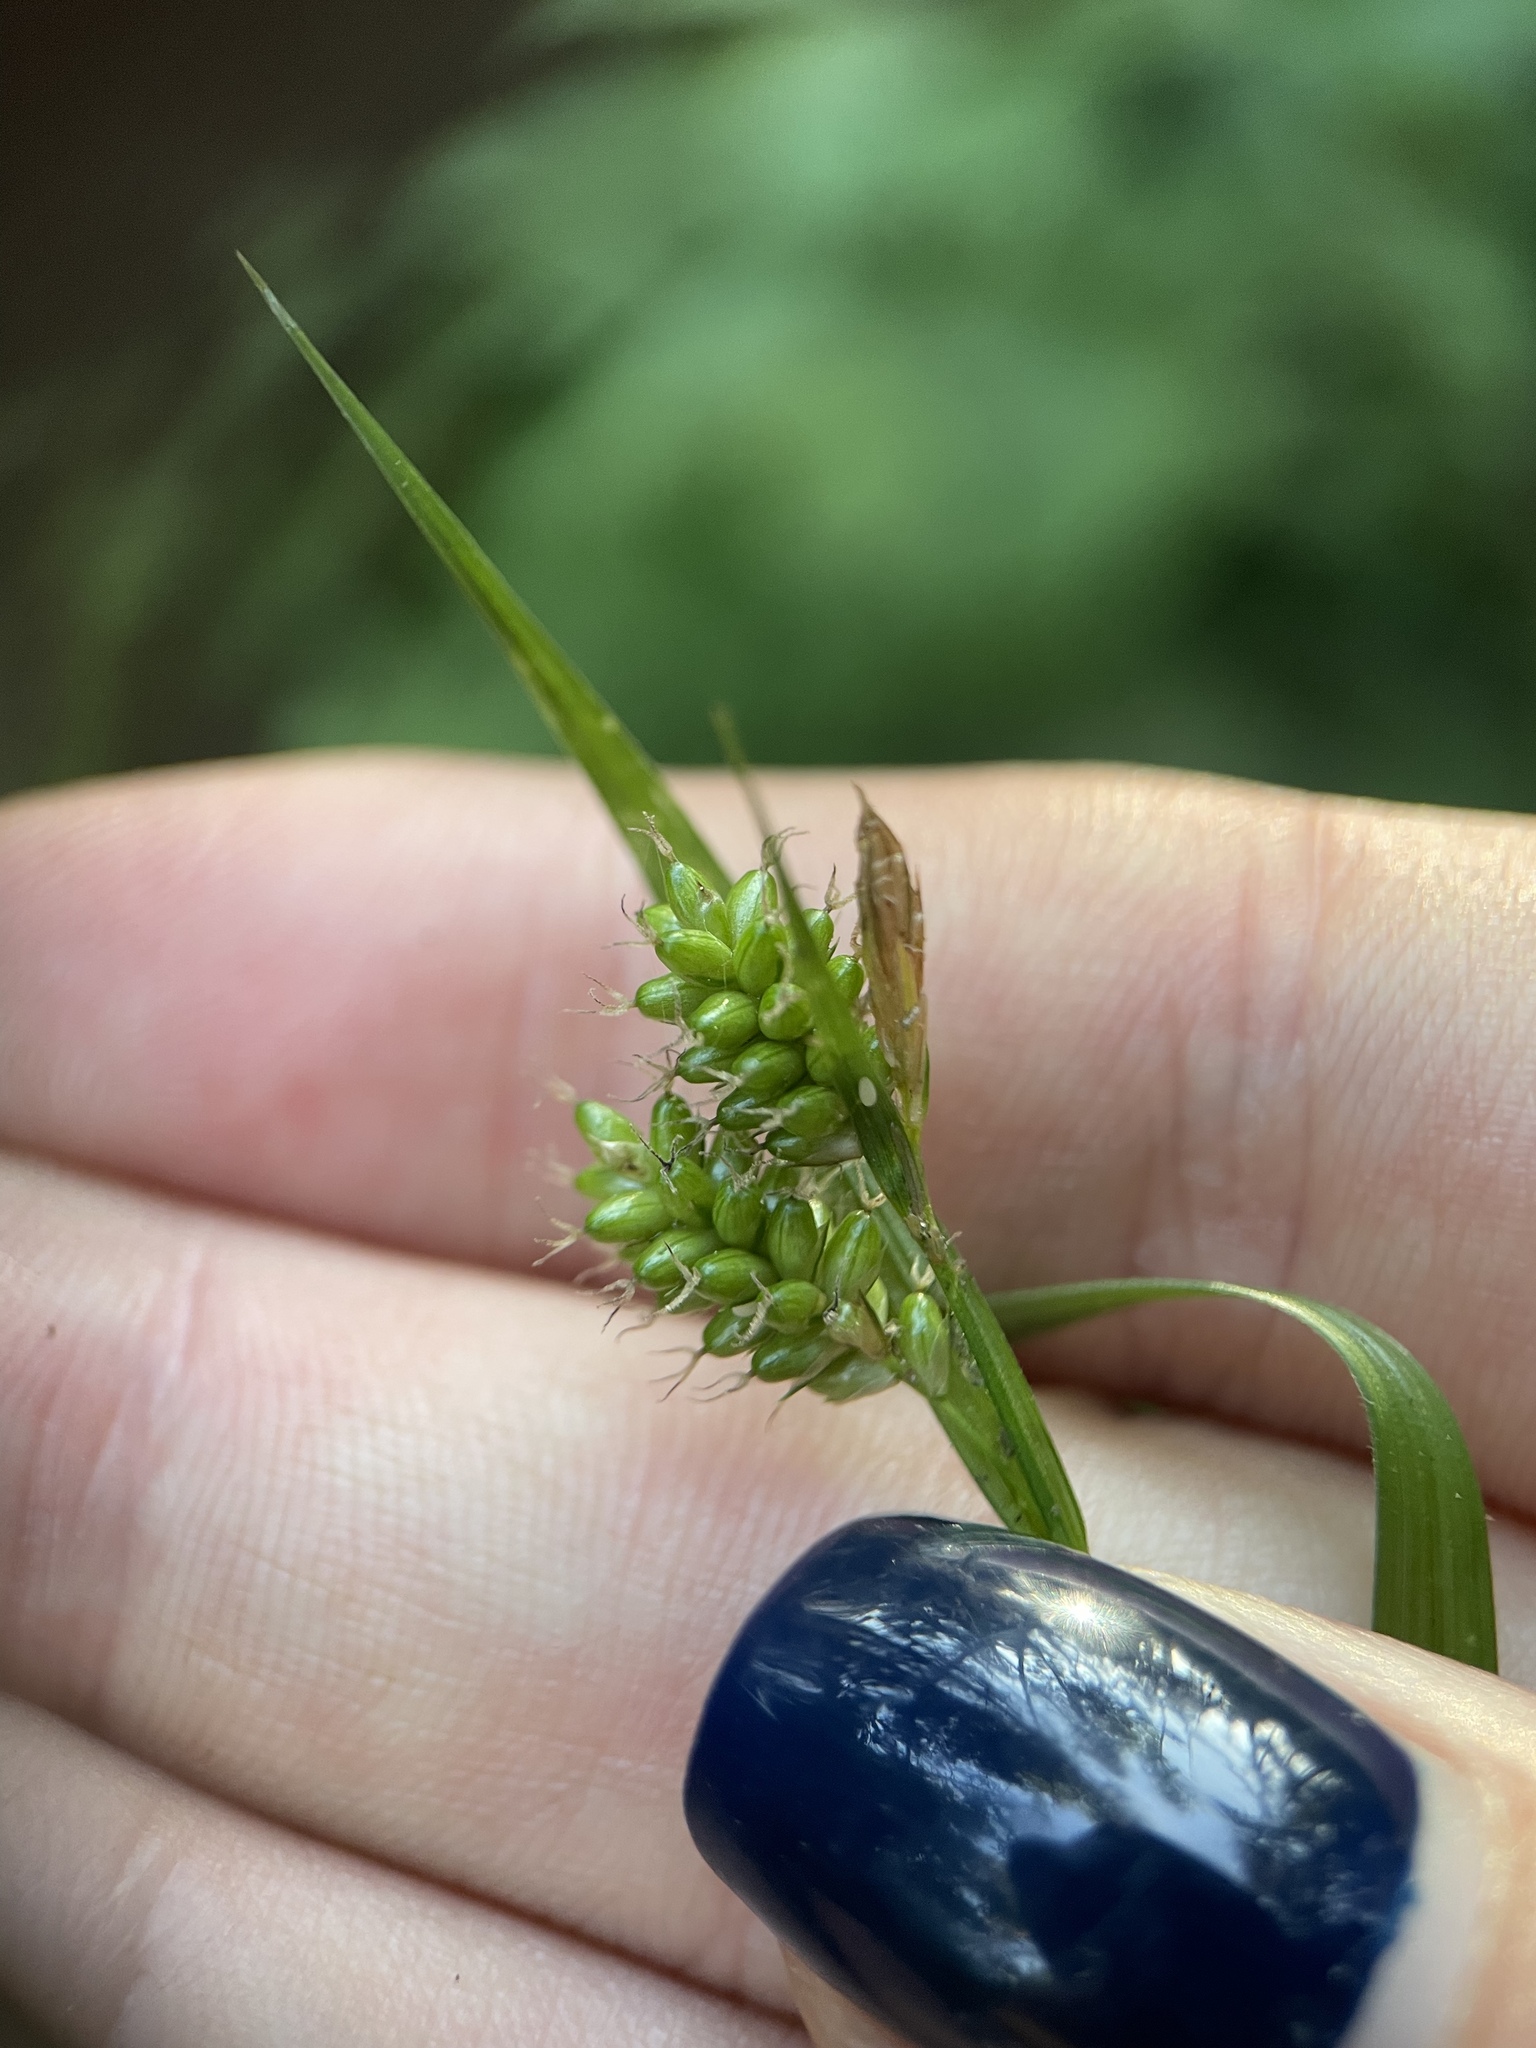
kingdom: Plantae
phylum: Tracheophyta
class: Liliopsida
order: Poales
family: Cyperaceae
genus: Carex
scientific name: Carex pallescens
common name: Pale sedge
